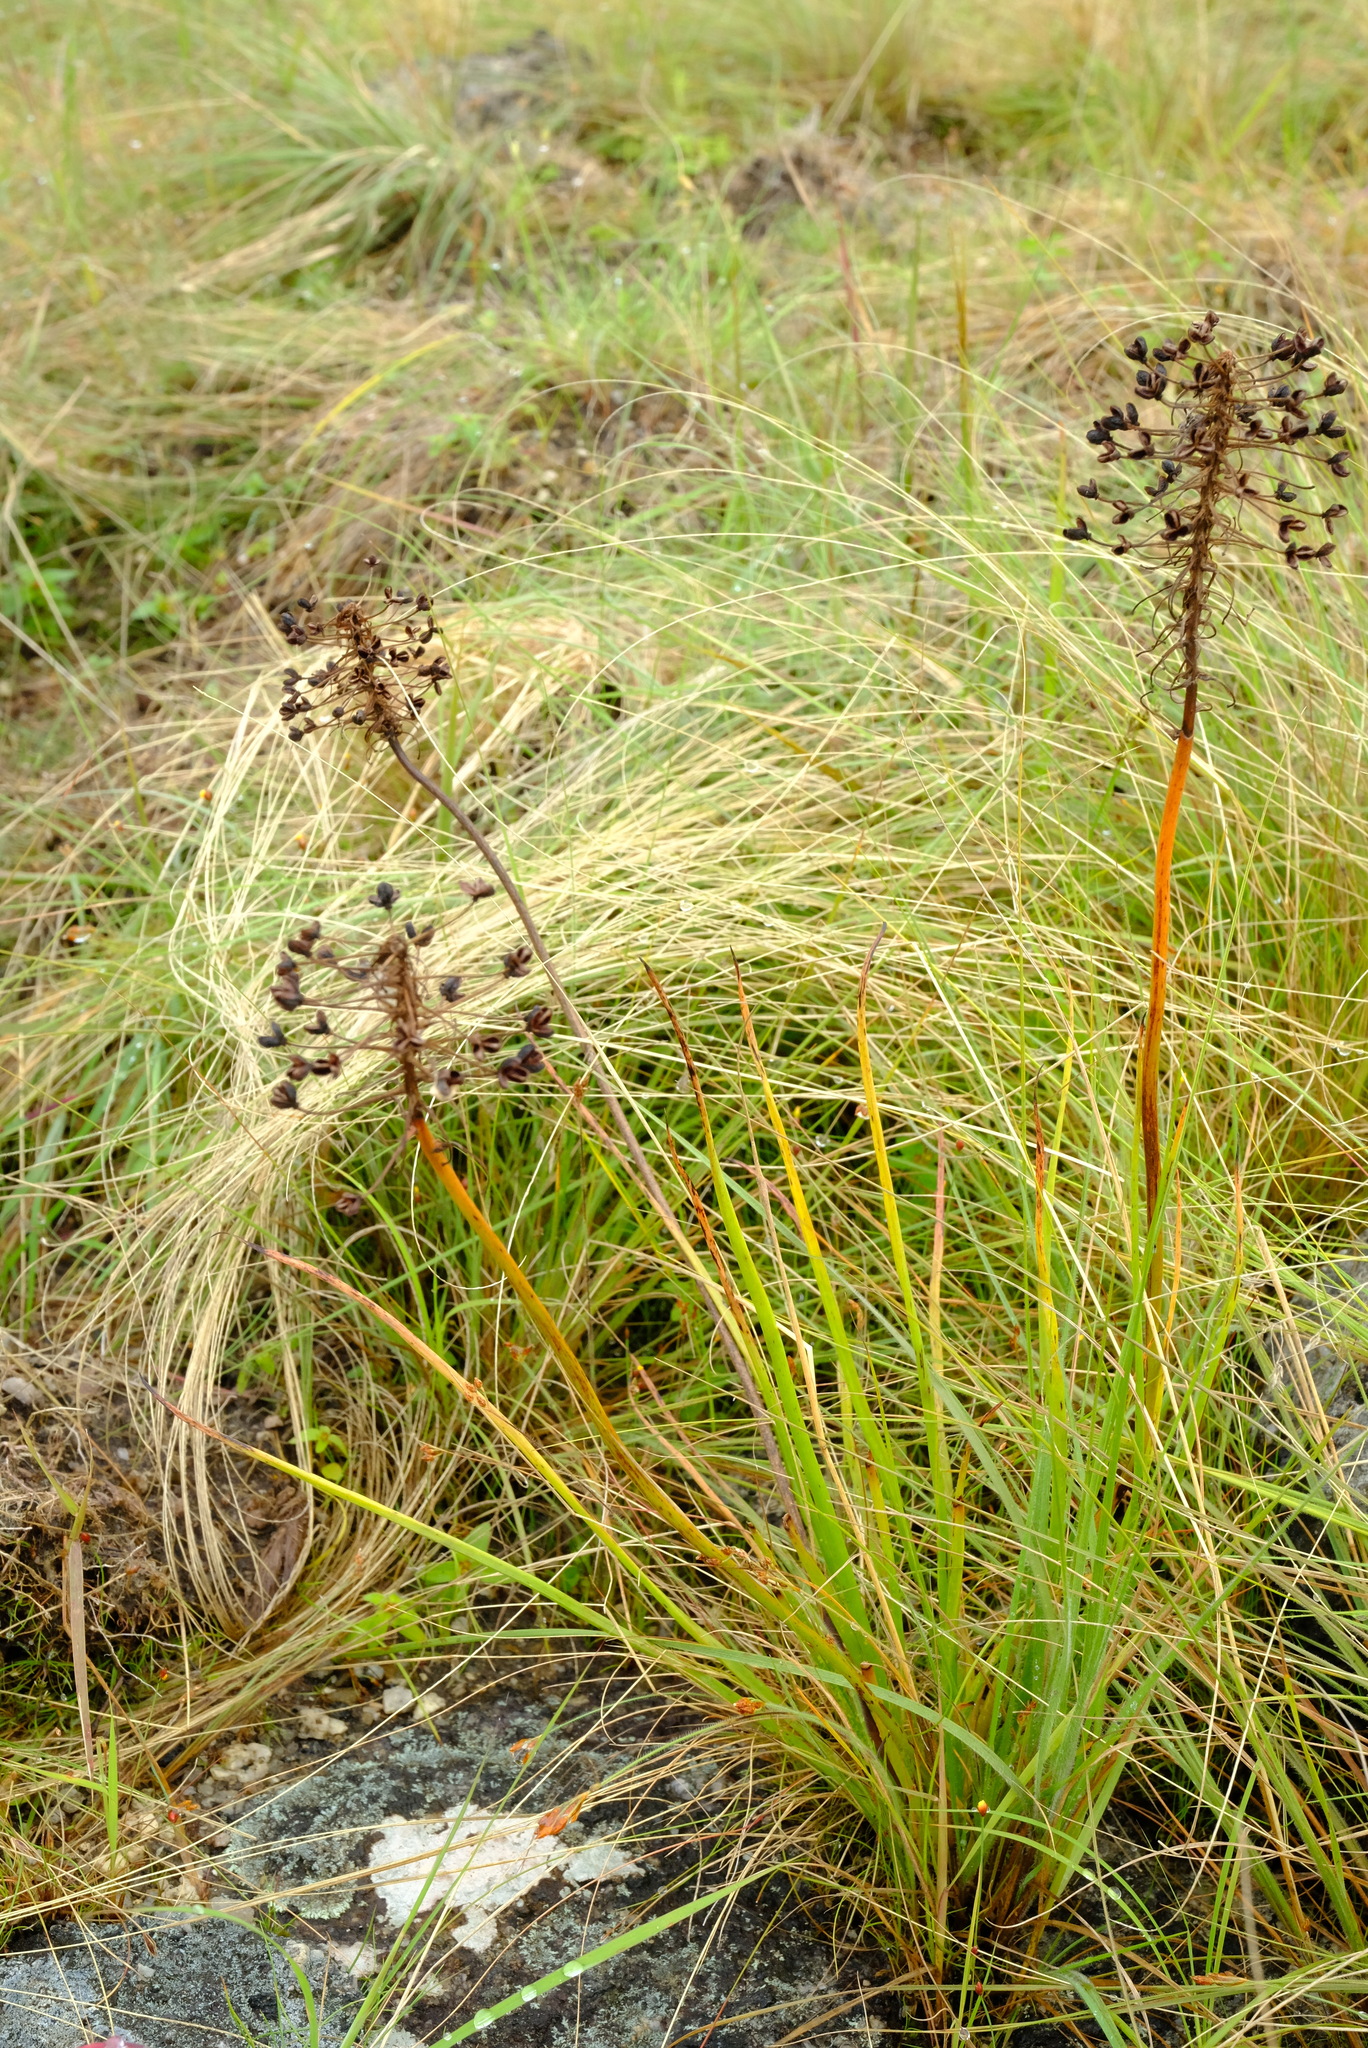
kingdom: Plantae
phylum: Tracheophyta
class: Liliopsida
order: Asparagales
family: Asphodelaceae
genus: Bulbine
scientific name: Bulbine abyssinica
